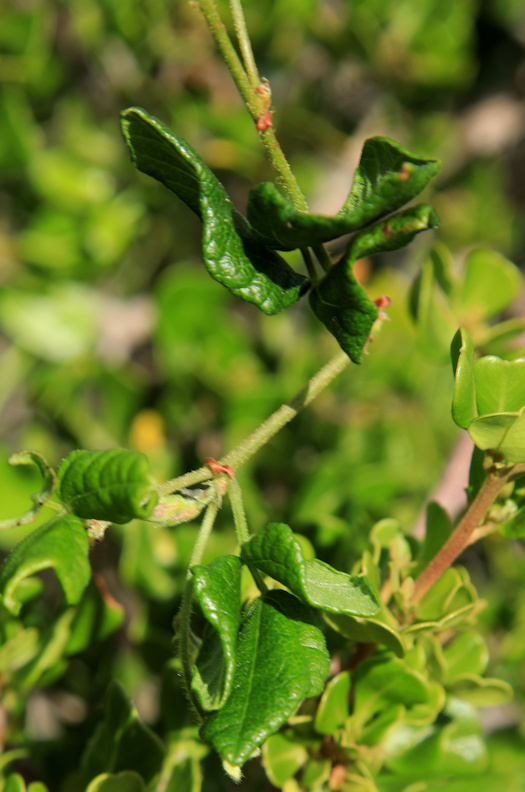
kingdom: Plantae
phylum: Tracheophyta
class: Magnoliopsida
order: Fabales
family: Fabaceae
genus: Rhynchosia
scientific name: Rhynchosia caribaea
